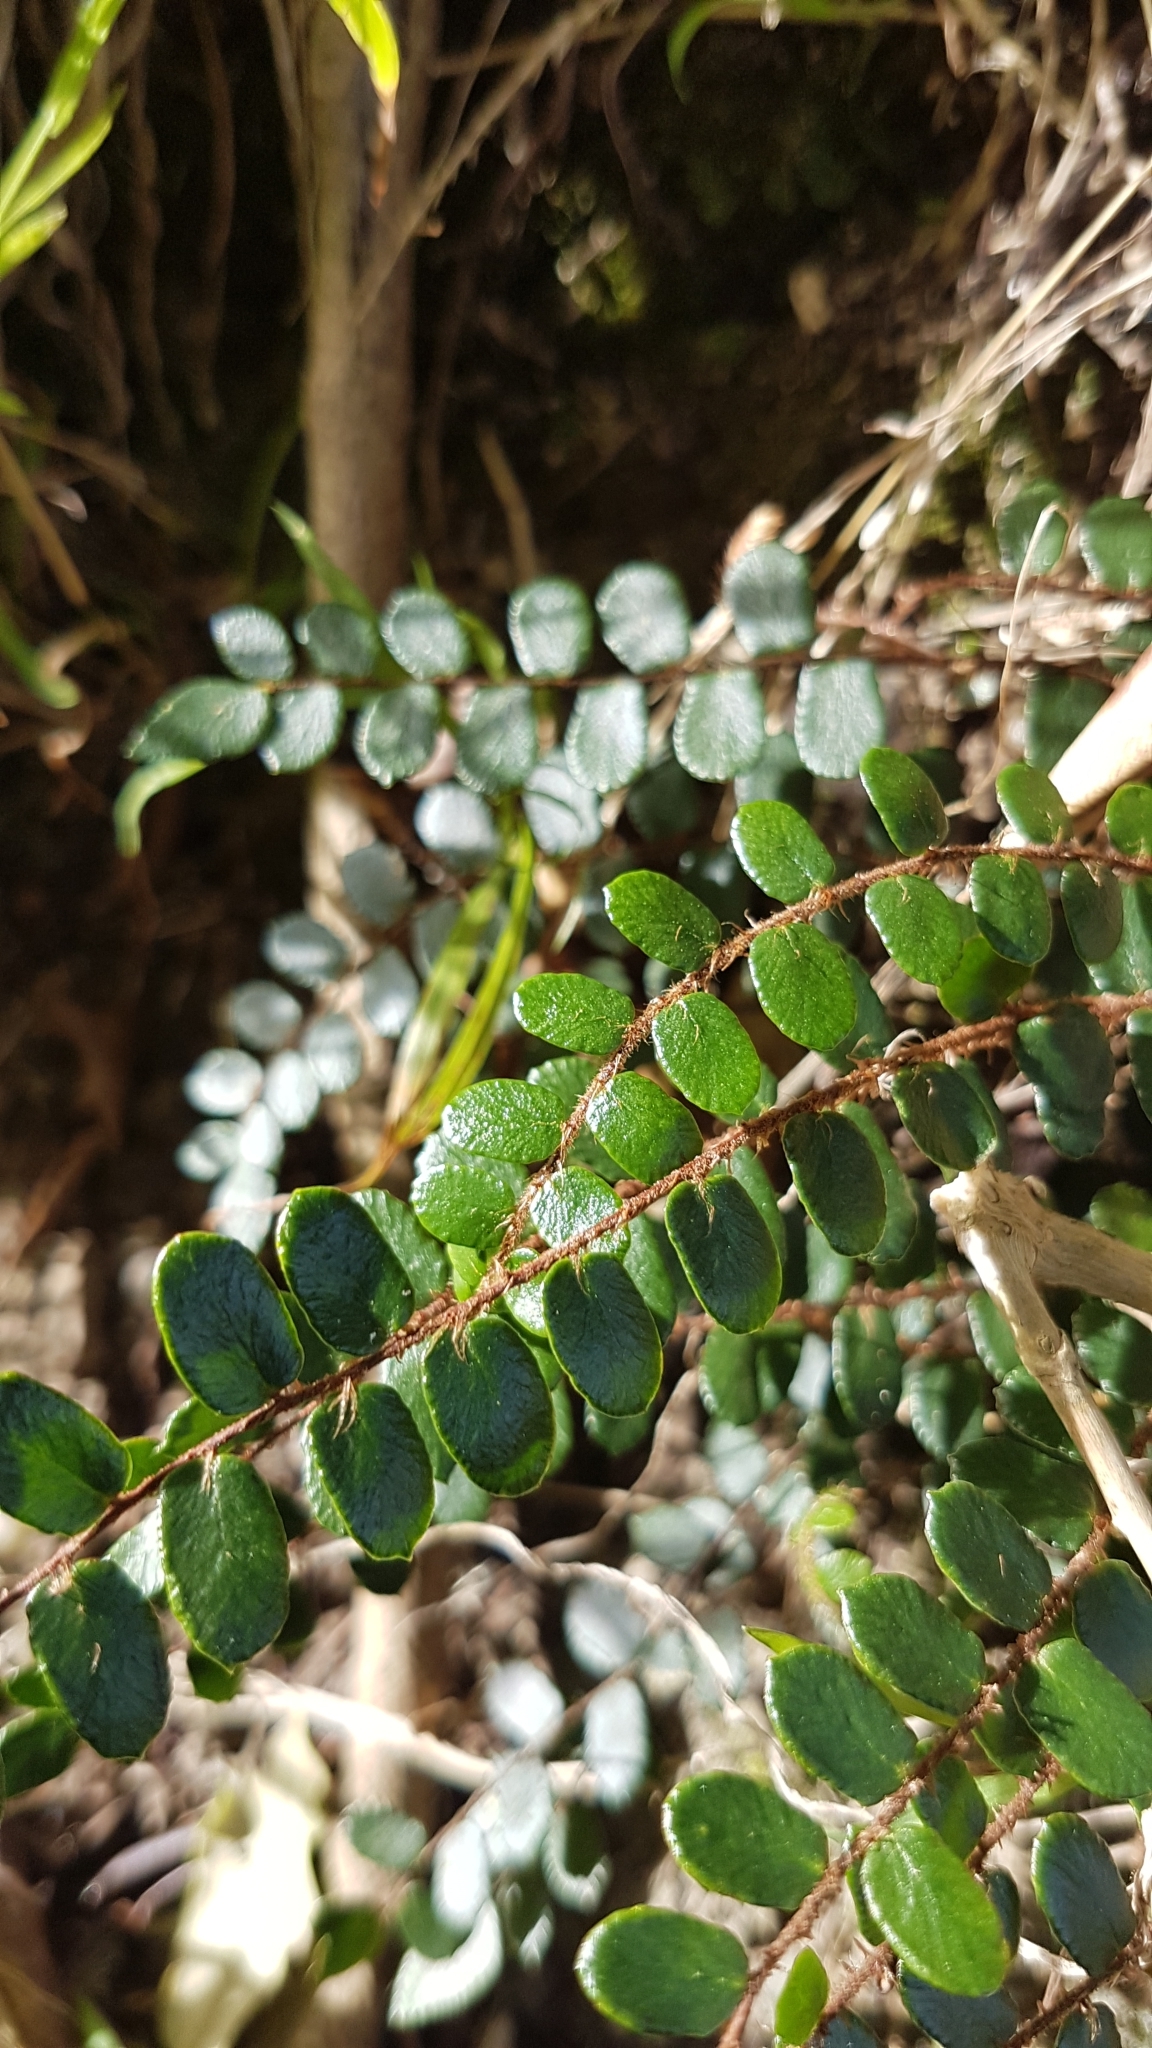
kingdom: Plantae
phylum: Tracheophyta
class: Polypodiopsida
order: Polypodiales
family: Pteridaceae
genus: Pellaea
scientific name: Pellaea rotundifolia
